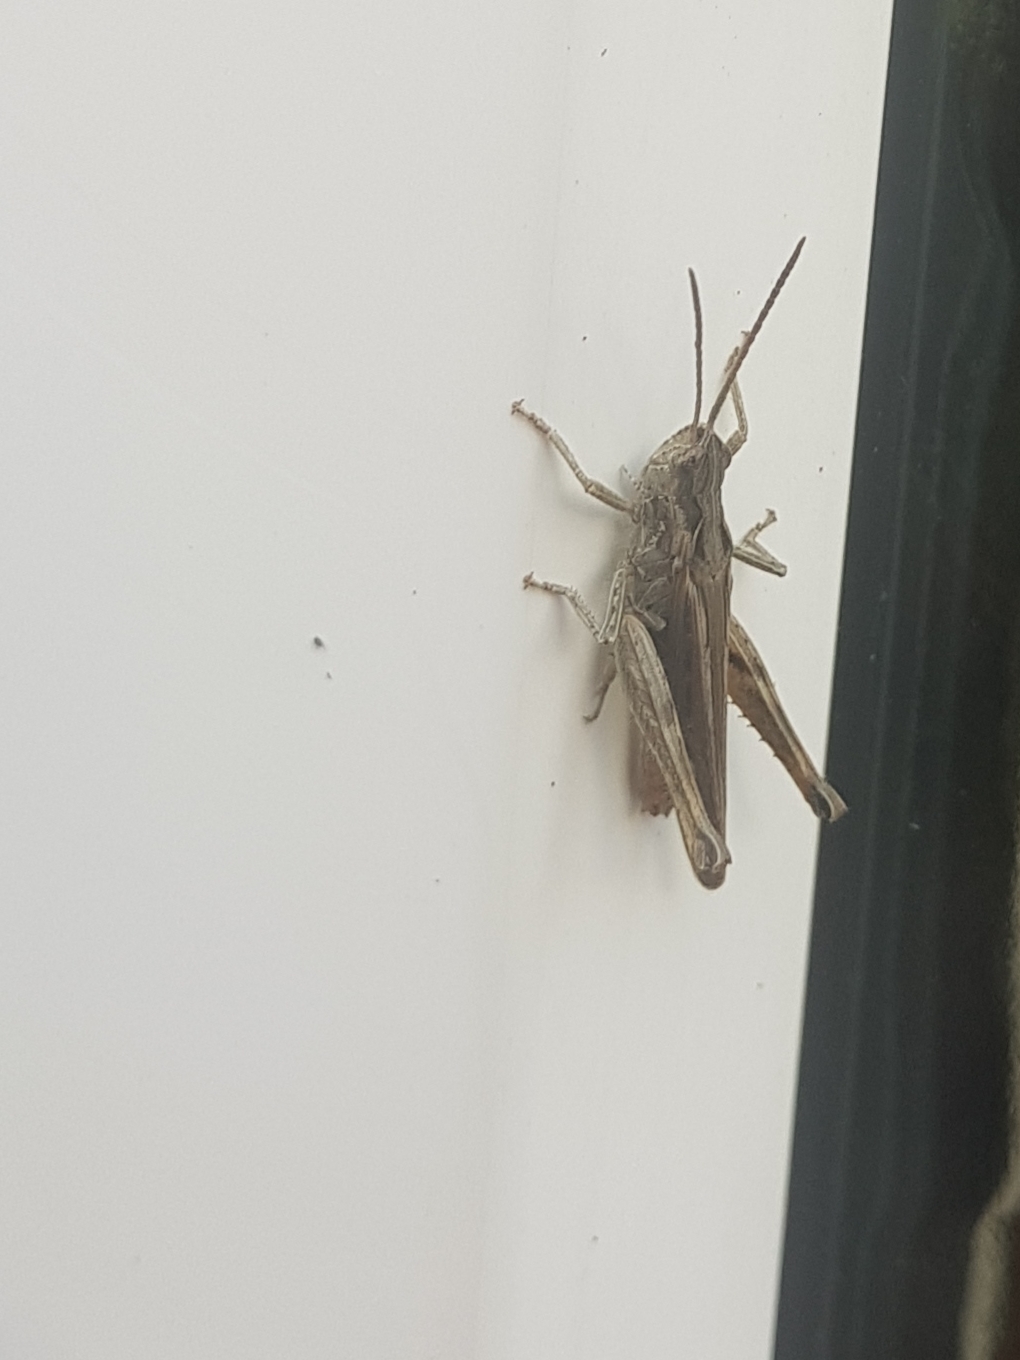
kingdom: Animalia
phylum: Arthropoda
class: Insecta
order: Orthoptera
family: Acrididae
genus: Chorthippus
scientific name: Chorthippus brunneus
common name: Field grasshopper
